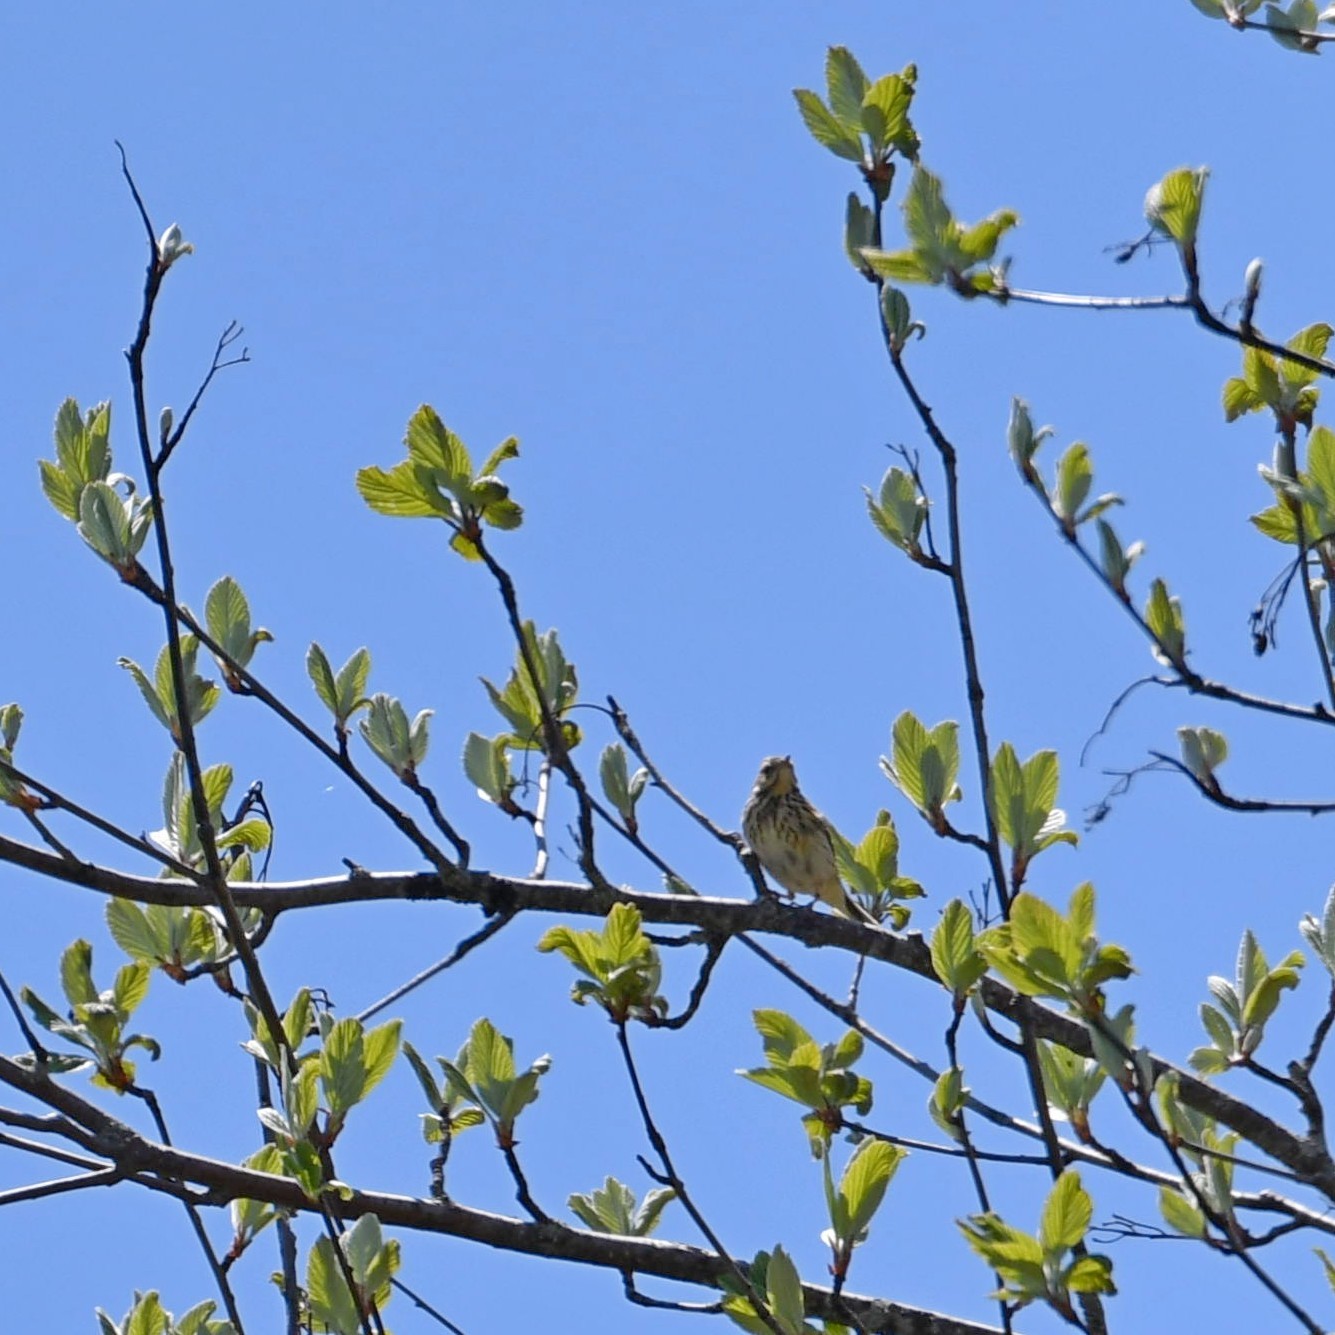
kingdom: Animalia
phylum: Chordata
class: Aves
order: Passeriformes
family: Motacillidae
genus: Anthus
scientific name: Anthus trivialis
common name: Tree pipit
